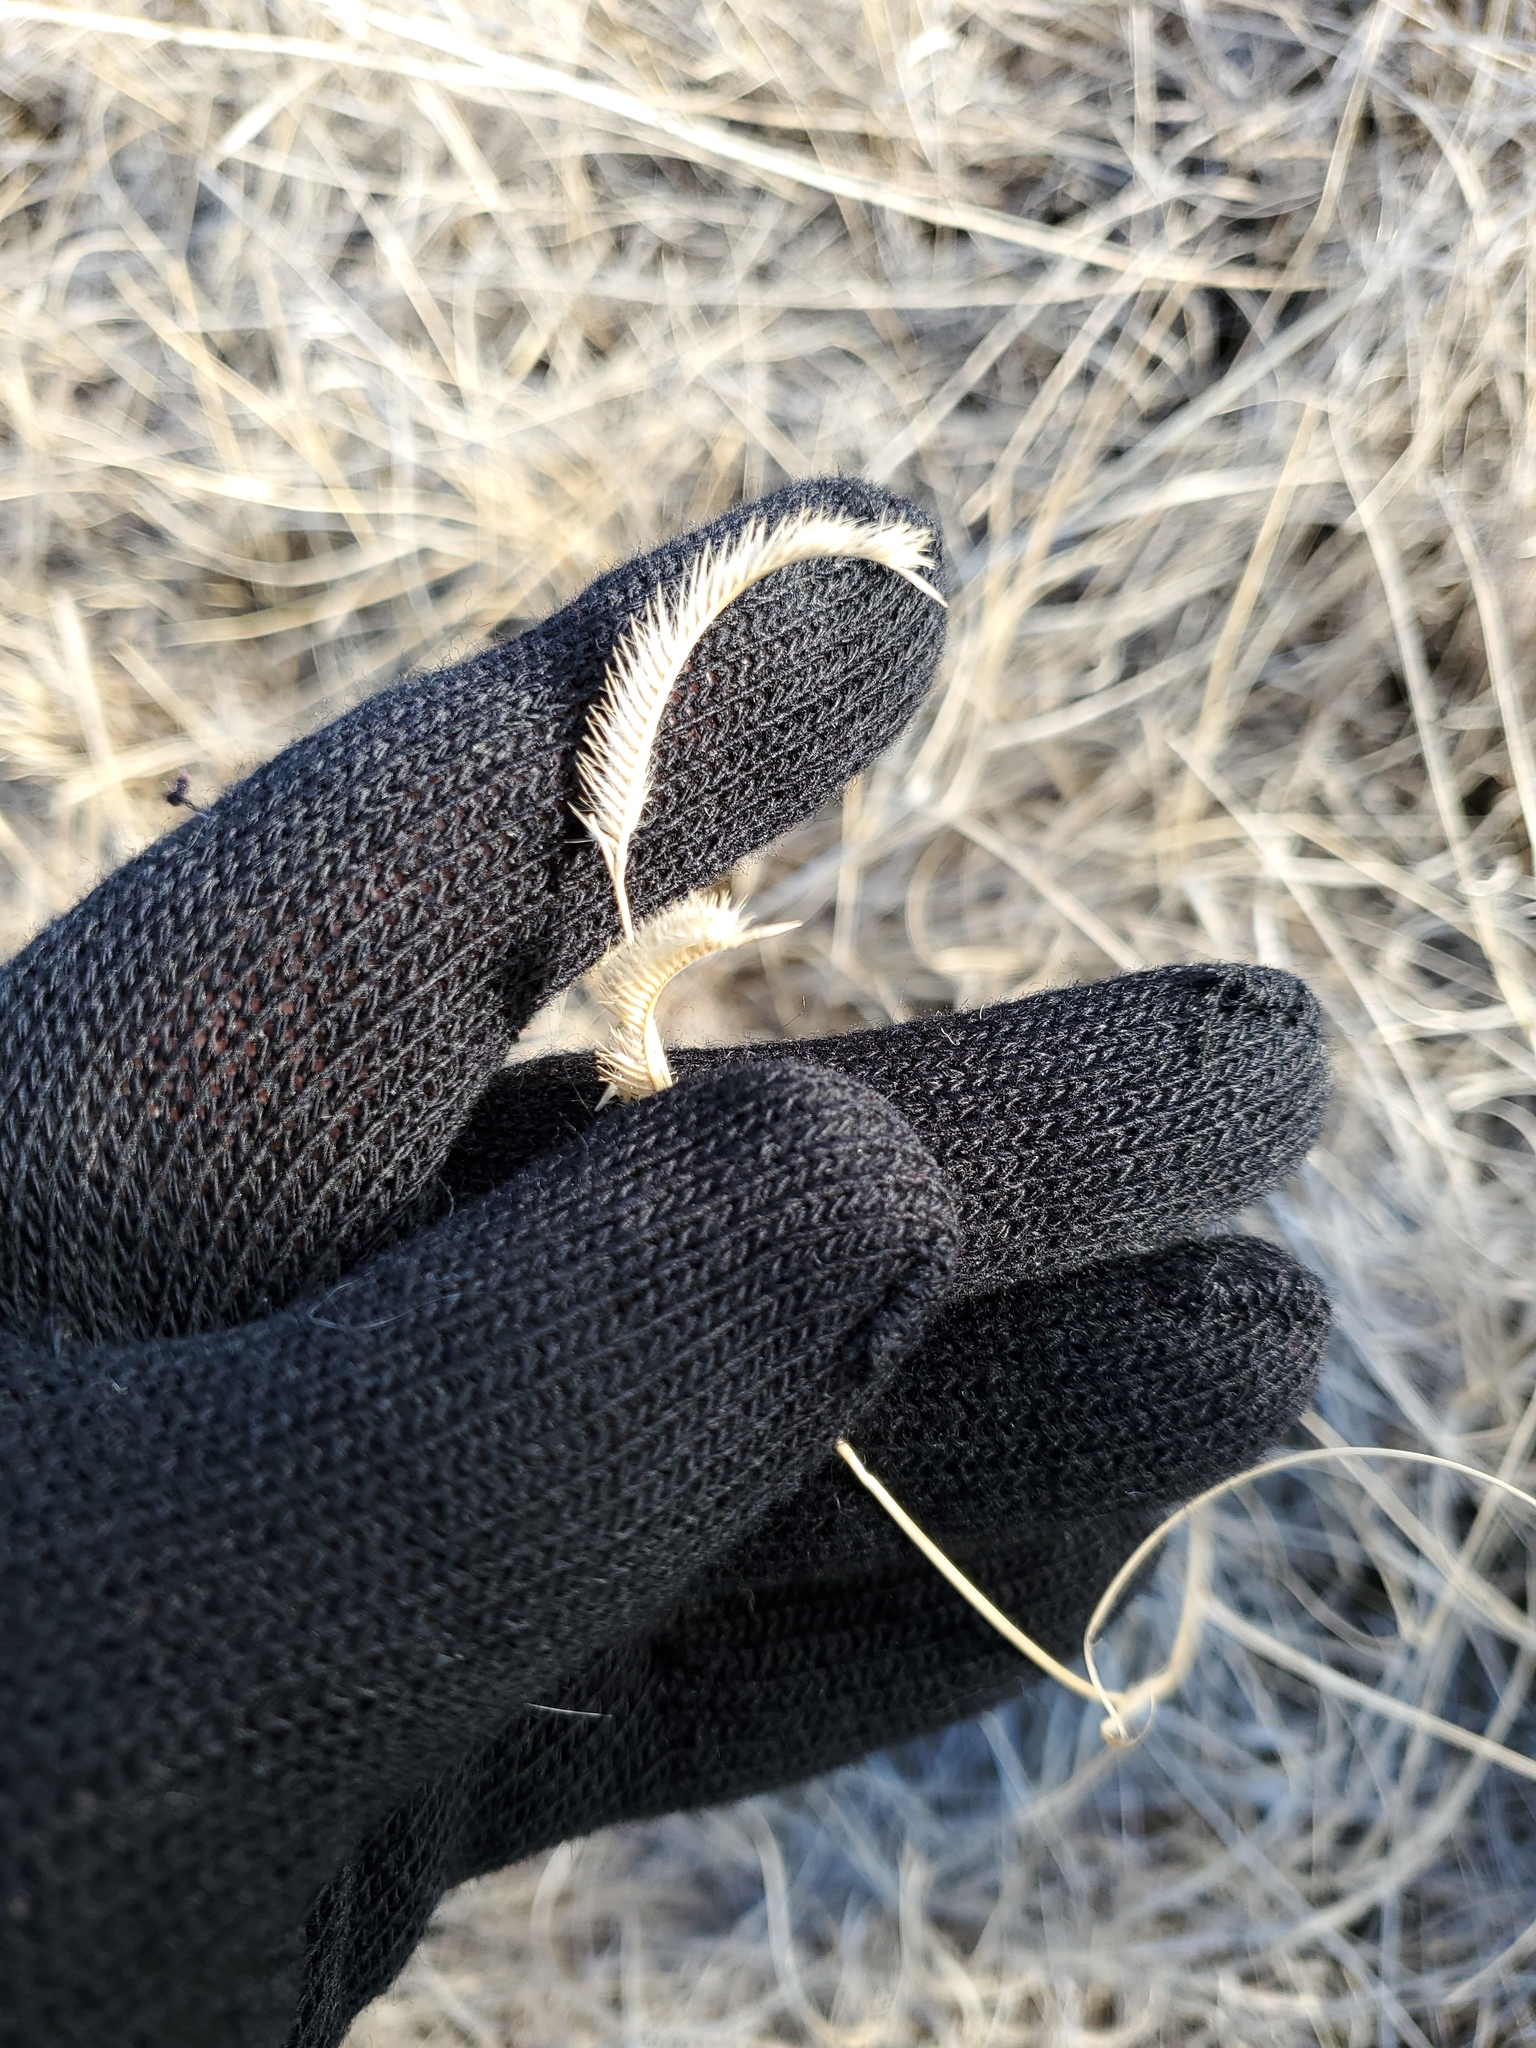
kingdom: Plantae
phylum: Tracheophyta
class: Liliopsida
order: Poales
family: Poaceae
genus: Bouteloua
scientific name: Bouteloua gracilis
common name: Blue grama
